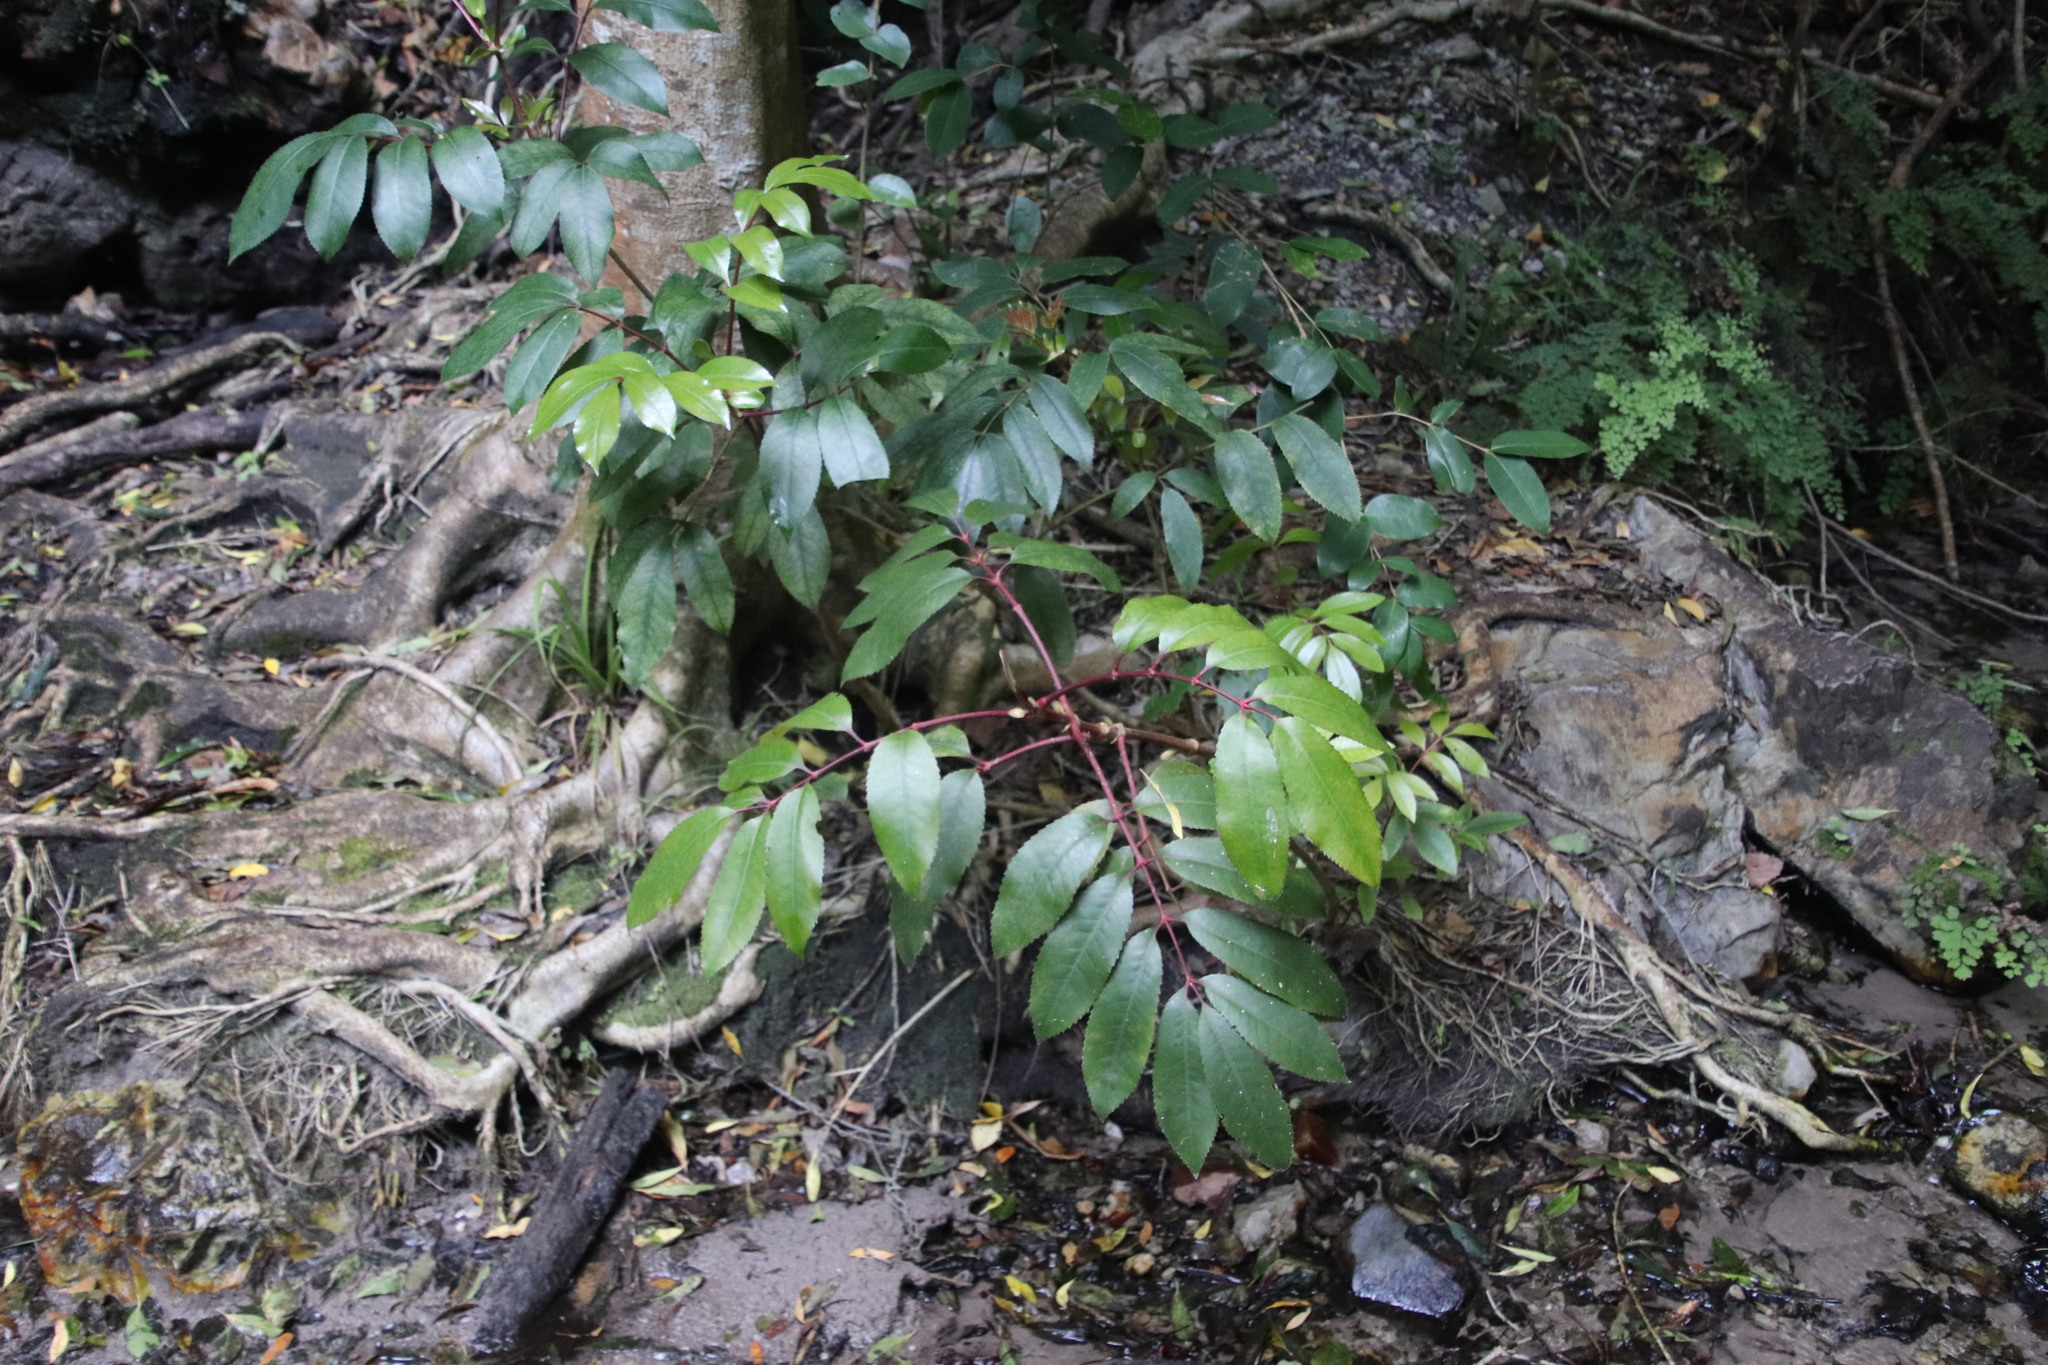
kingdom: Plantae
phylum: Tracheophyta
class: Magnoliopsida
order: Oxalidales
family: Cunoniaceae
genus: Cunonia
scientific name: Cunonia capensis
